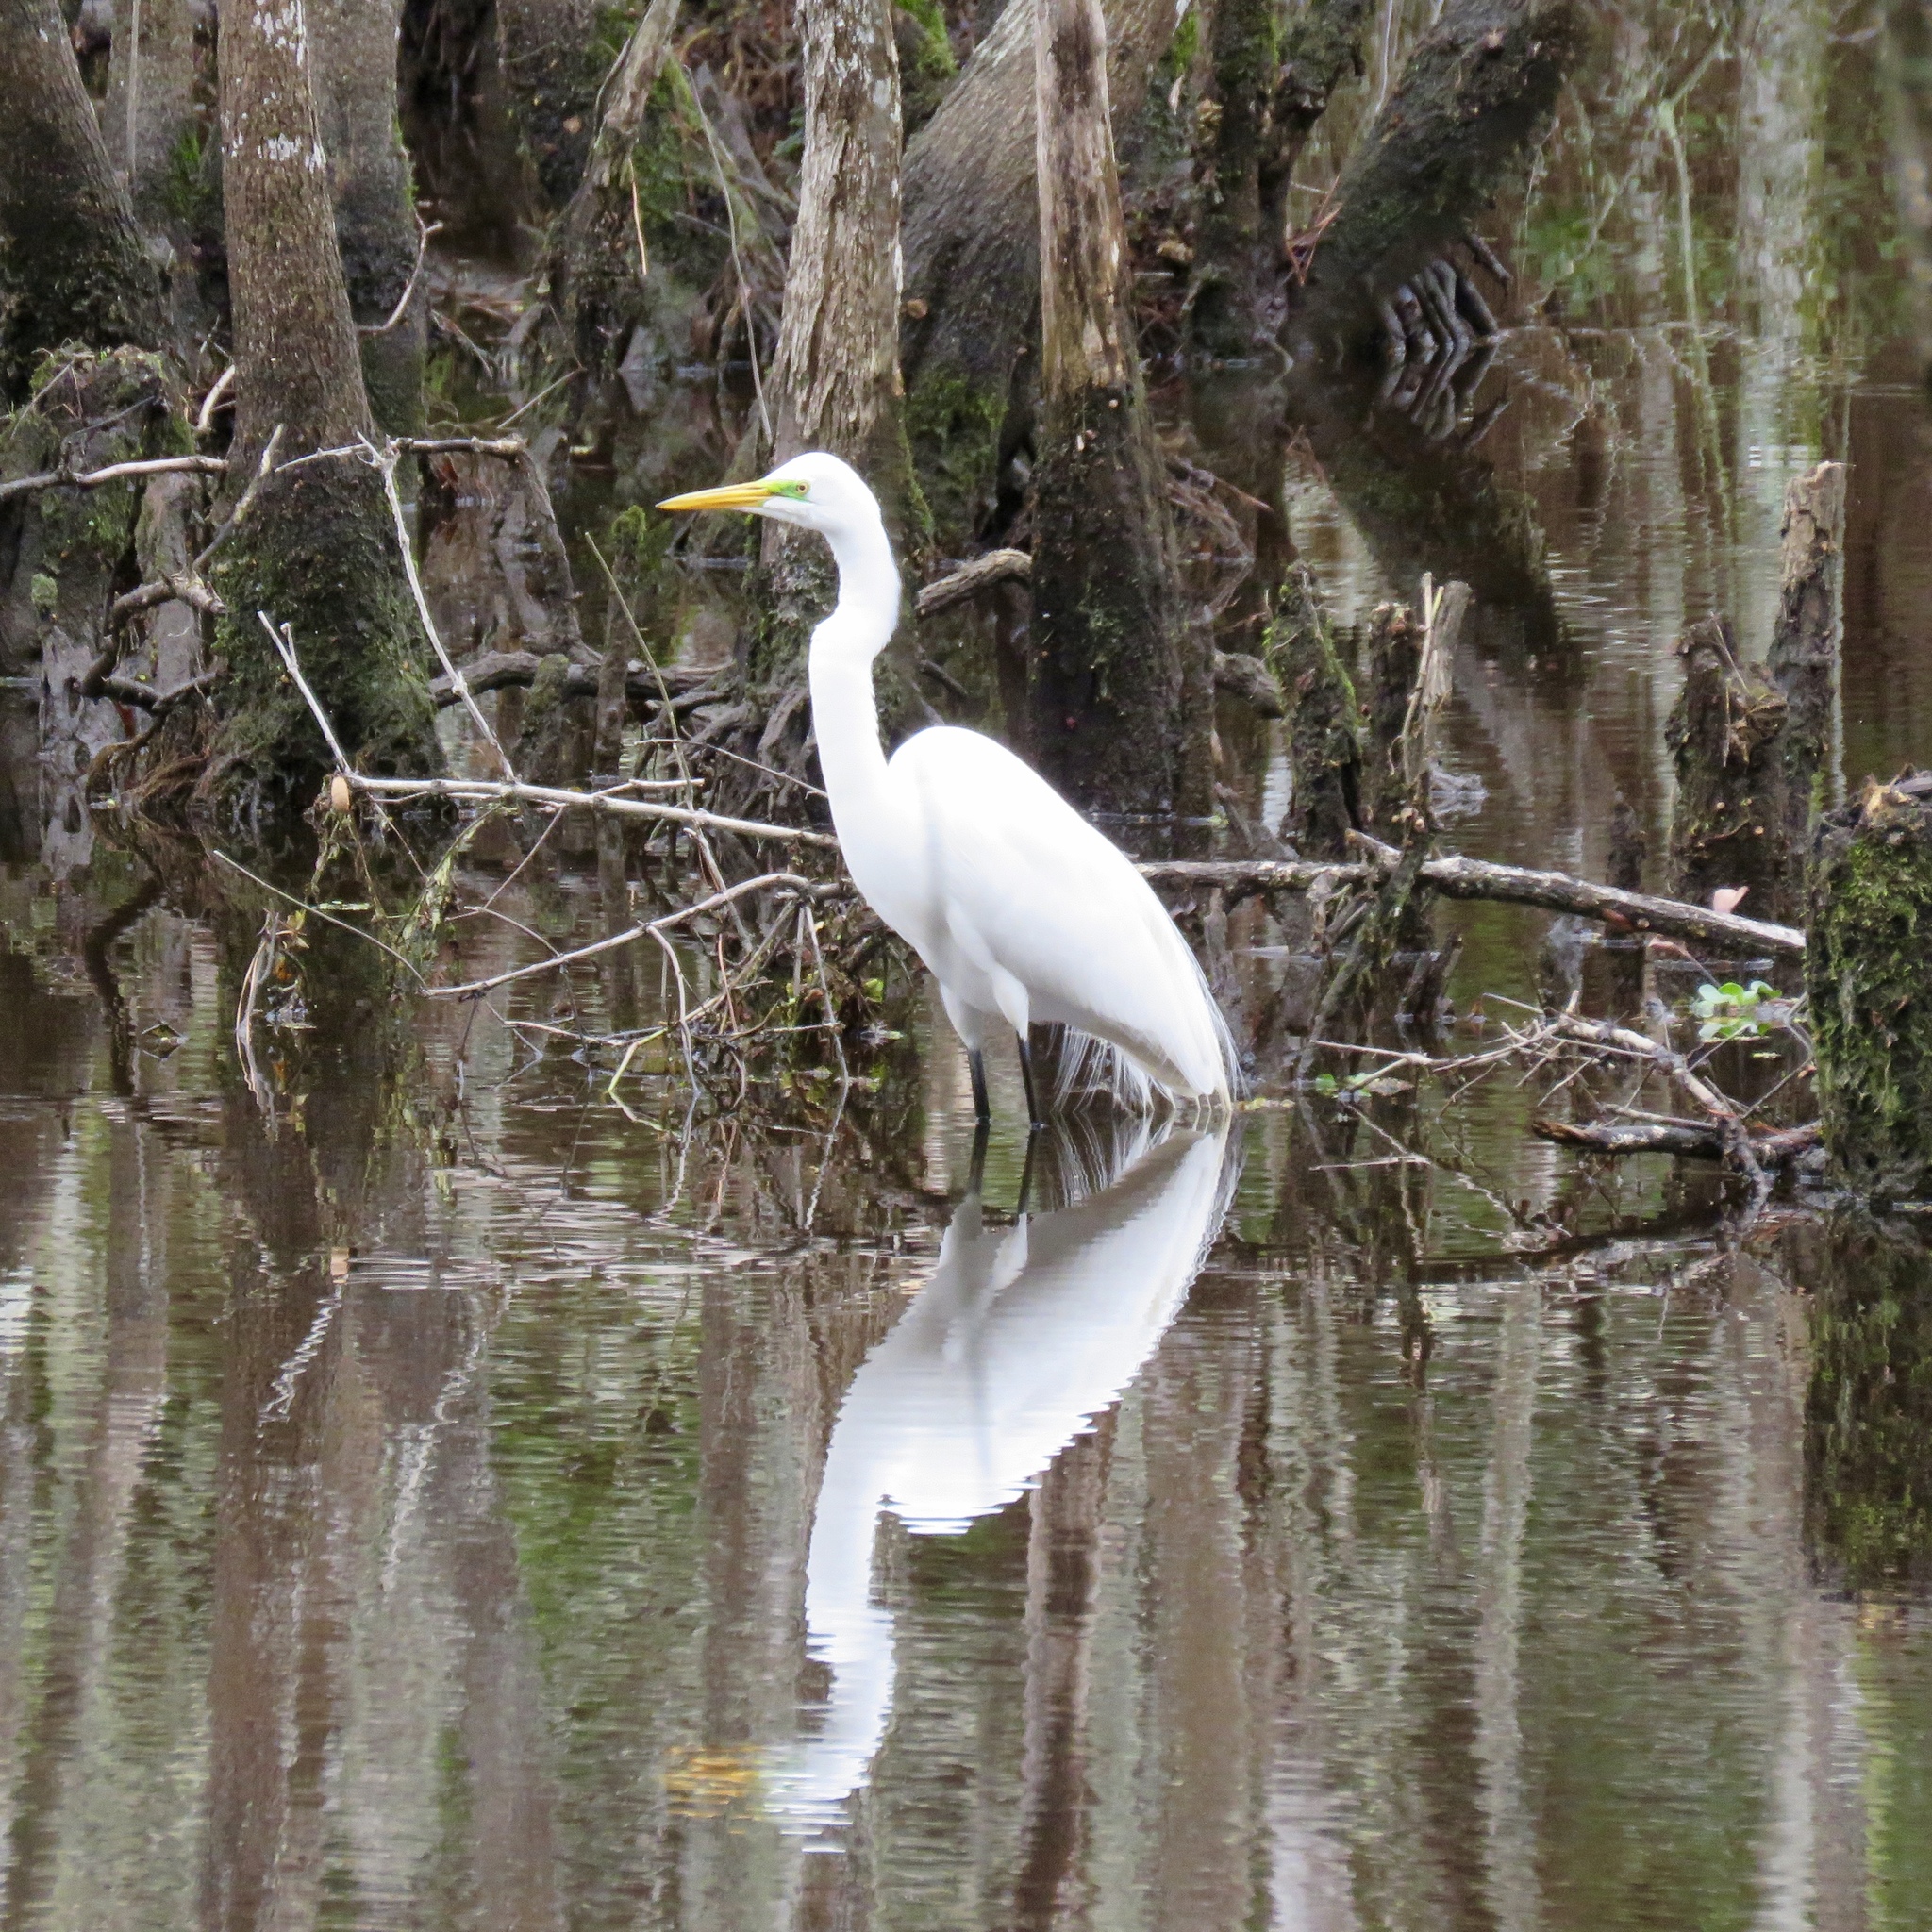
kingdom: Animalia
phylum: Chordata
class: Aves
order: Pelecaniformes
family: Ardeidae
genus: Ardea
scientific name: Ardea alba
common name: Great egret
